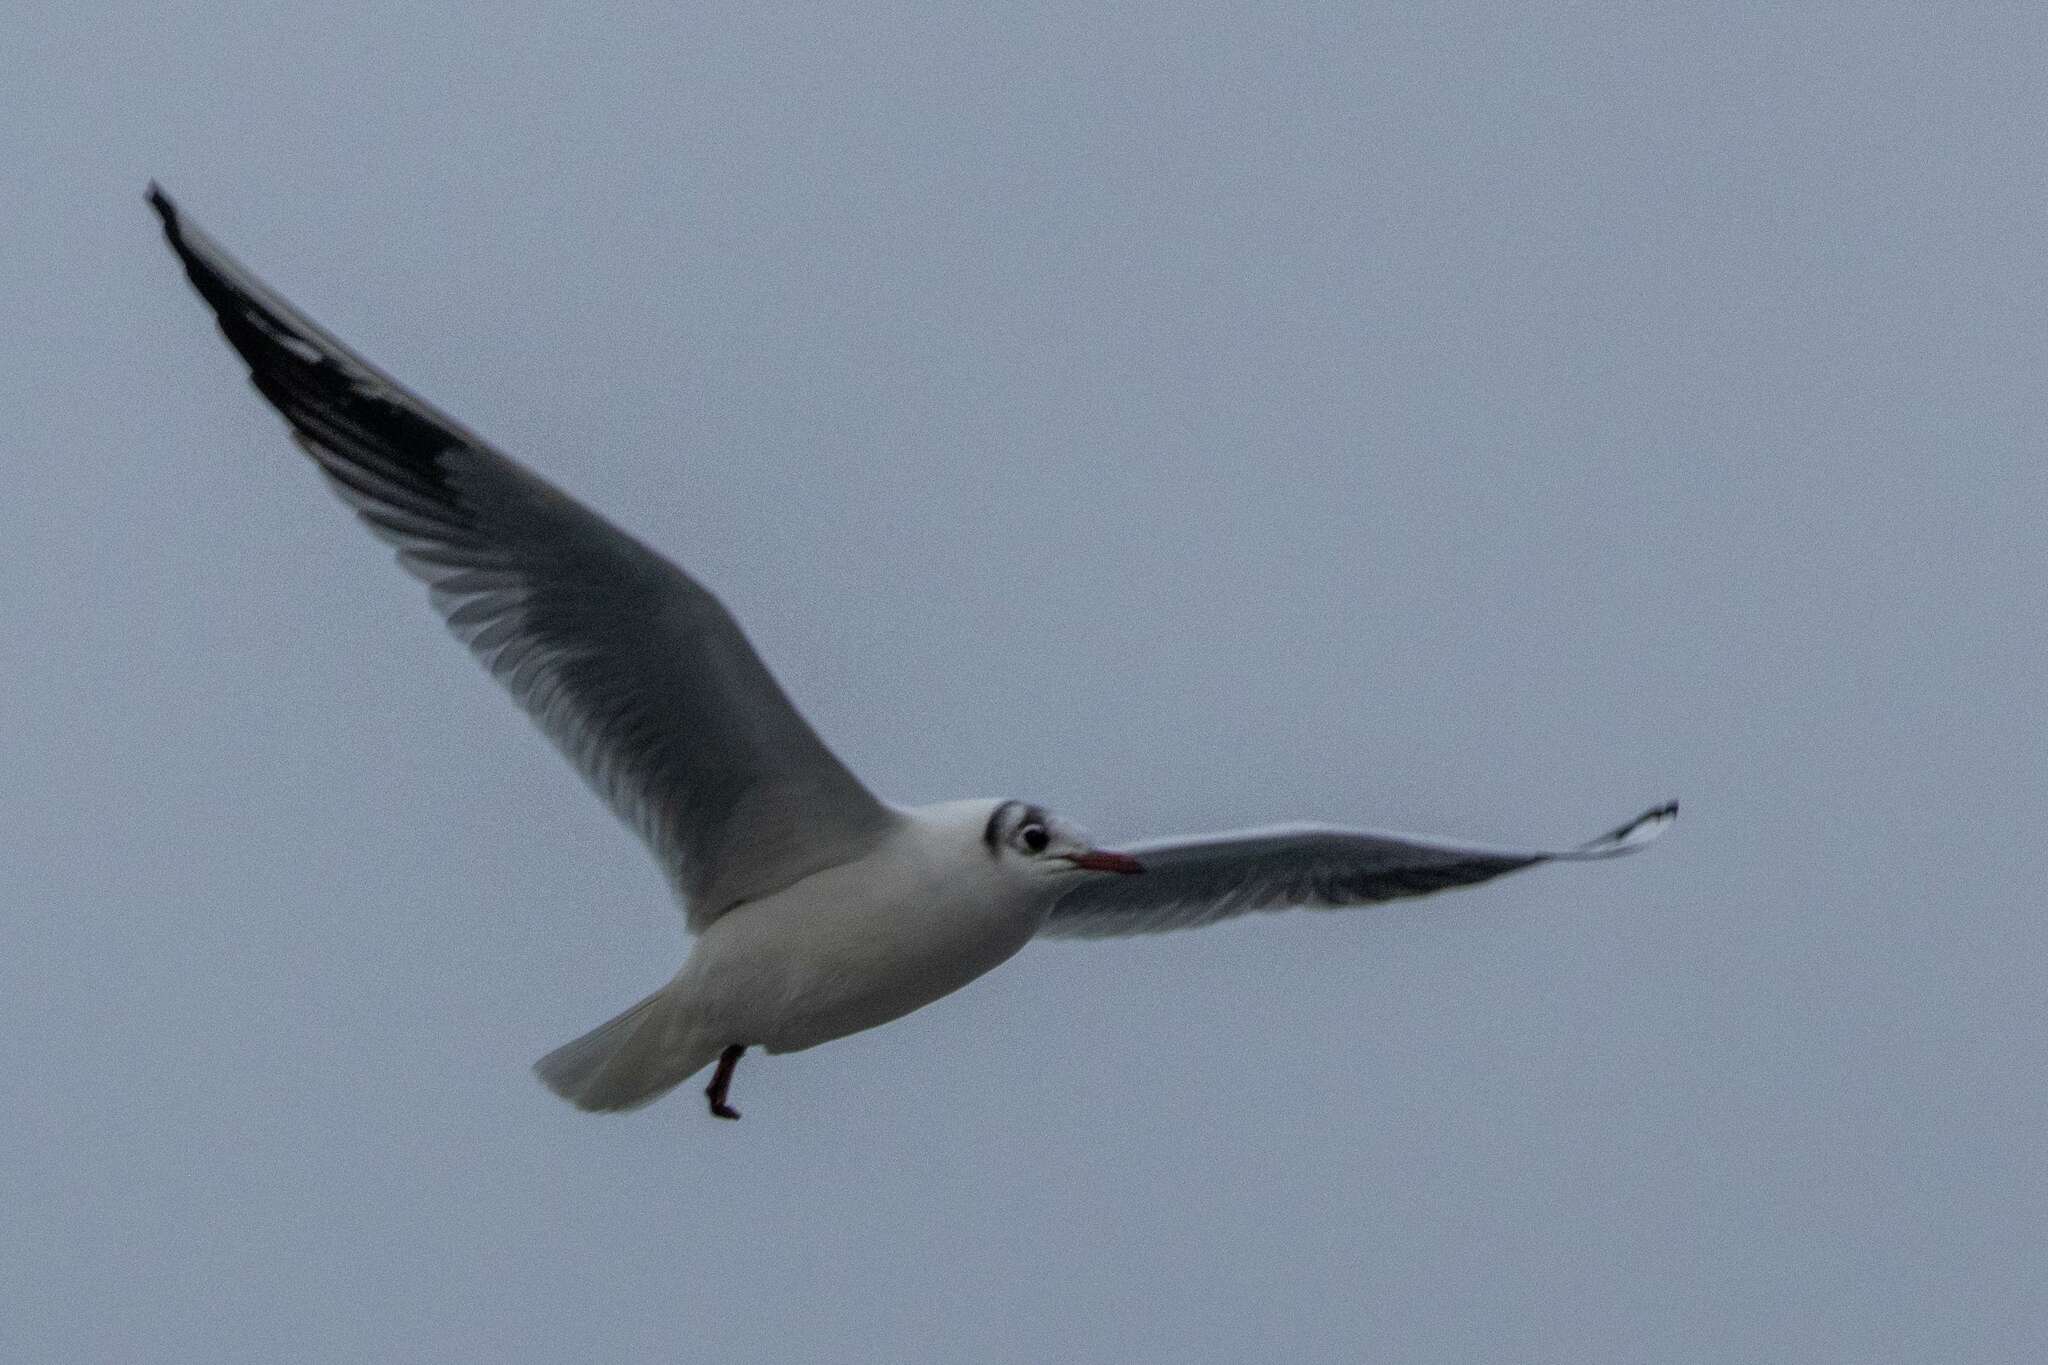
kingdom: Animalia
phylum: Chordata
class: Aves
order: Charadriiformes
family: Laridae
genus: Chroicocephalus
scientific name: Chroicocephalus ridibundus
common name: Black-headed gull
